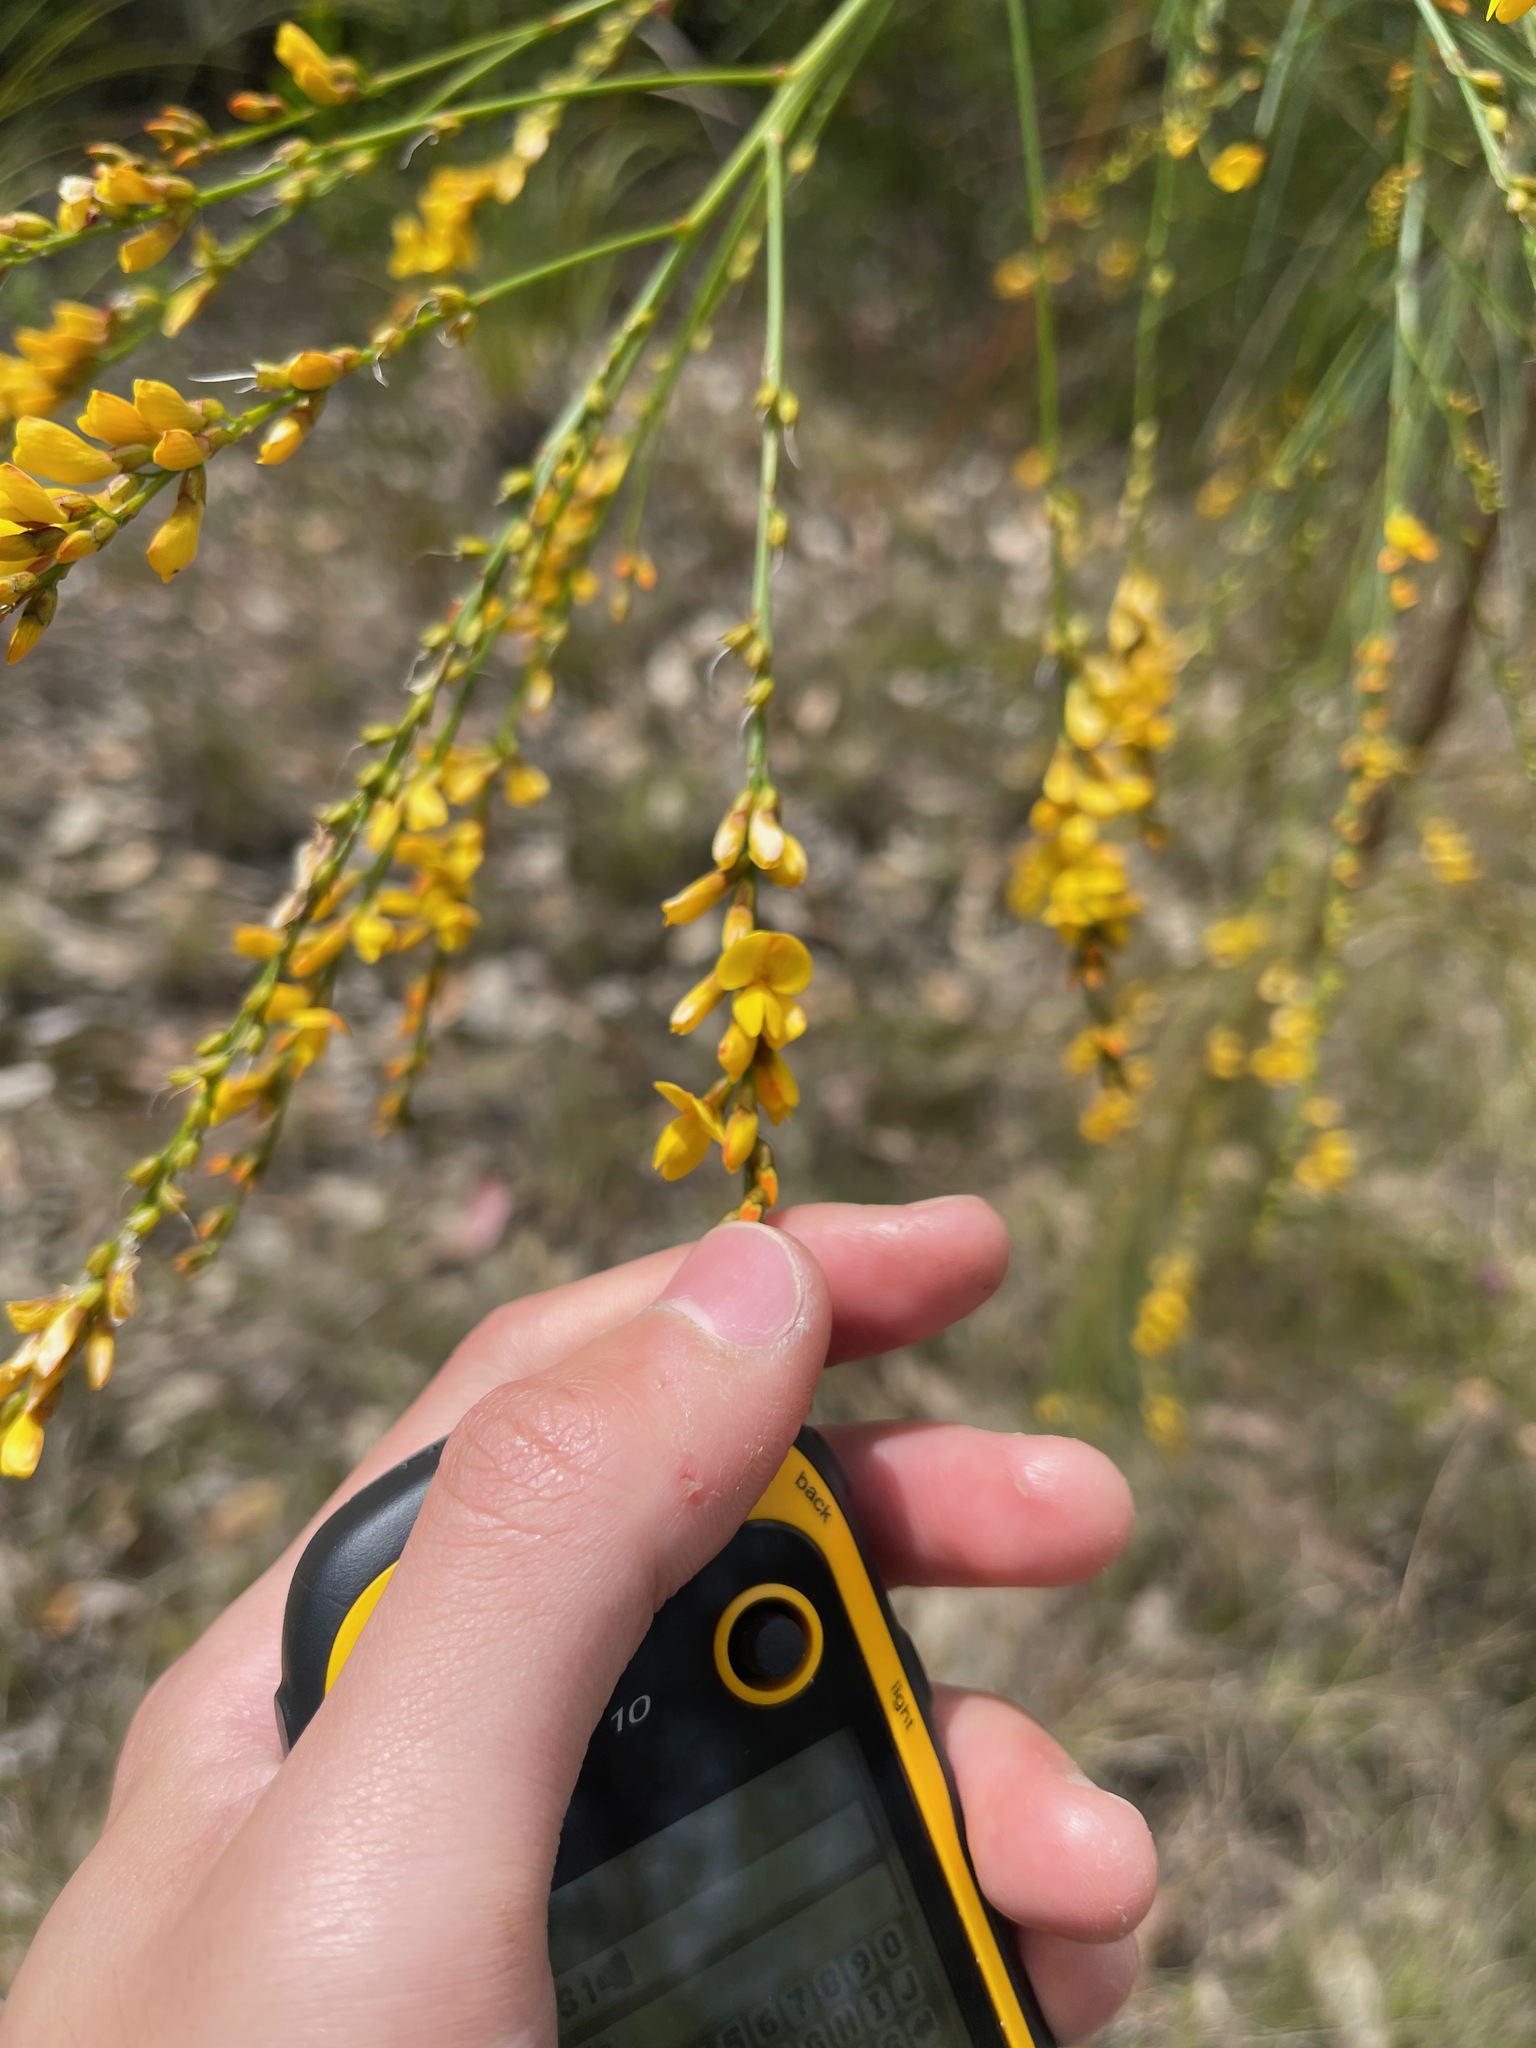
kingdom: Plantae
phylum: Tracheophyta
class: Magnoliopsida
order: Fabales
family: Fabaceae
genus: Viminaria
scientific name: Viminaria juncea
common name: Golden spray
